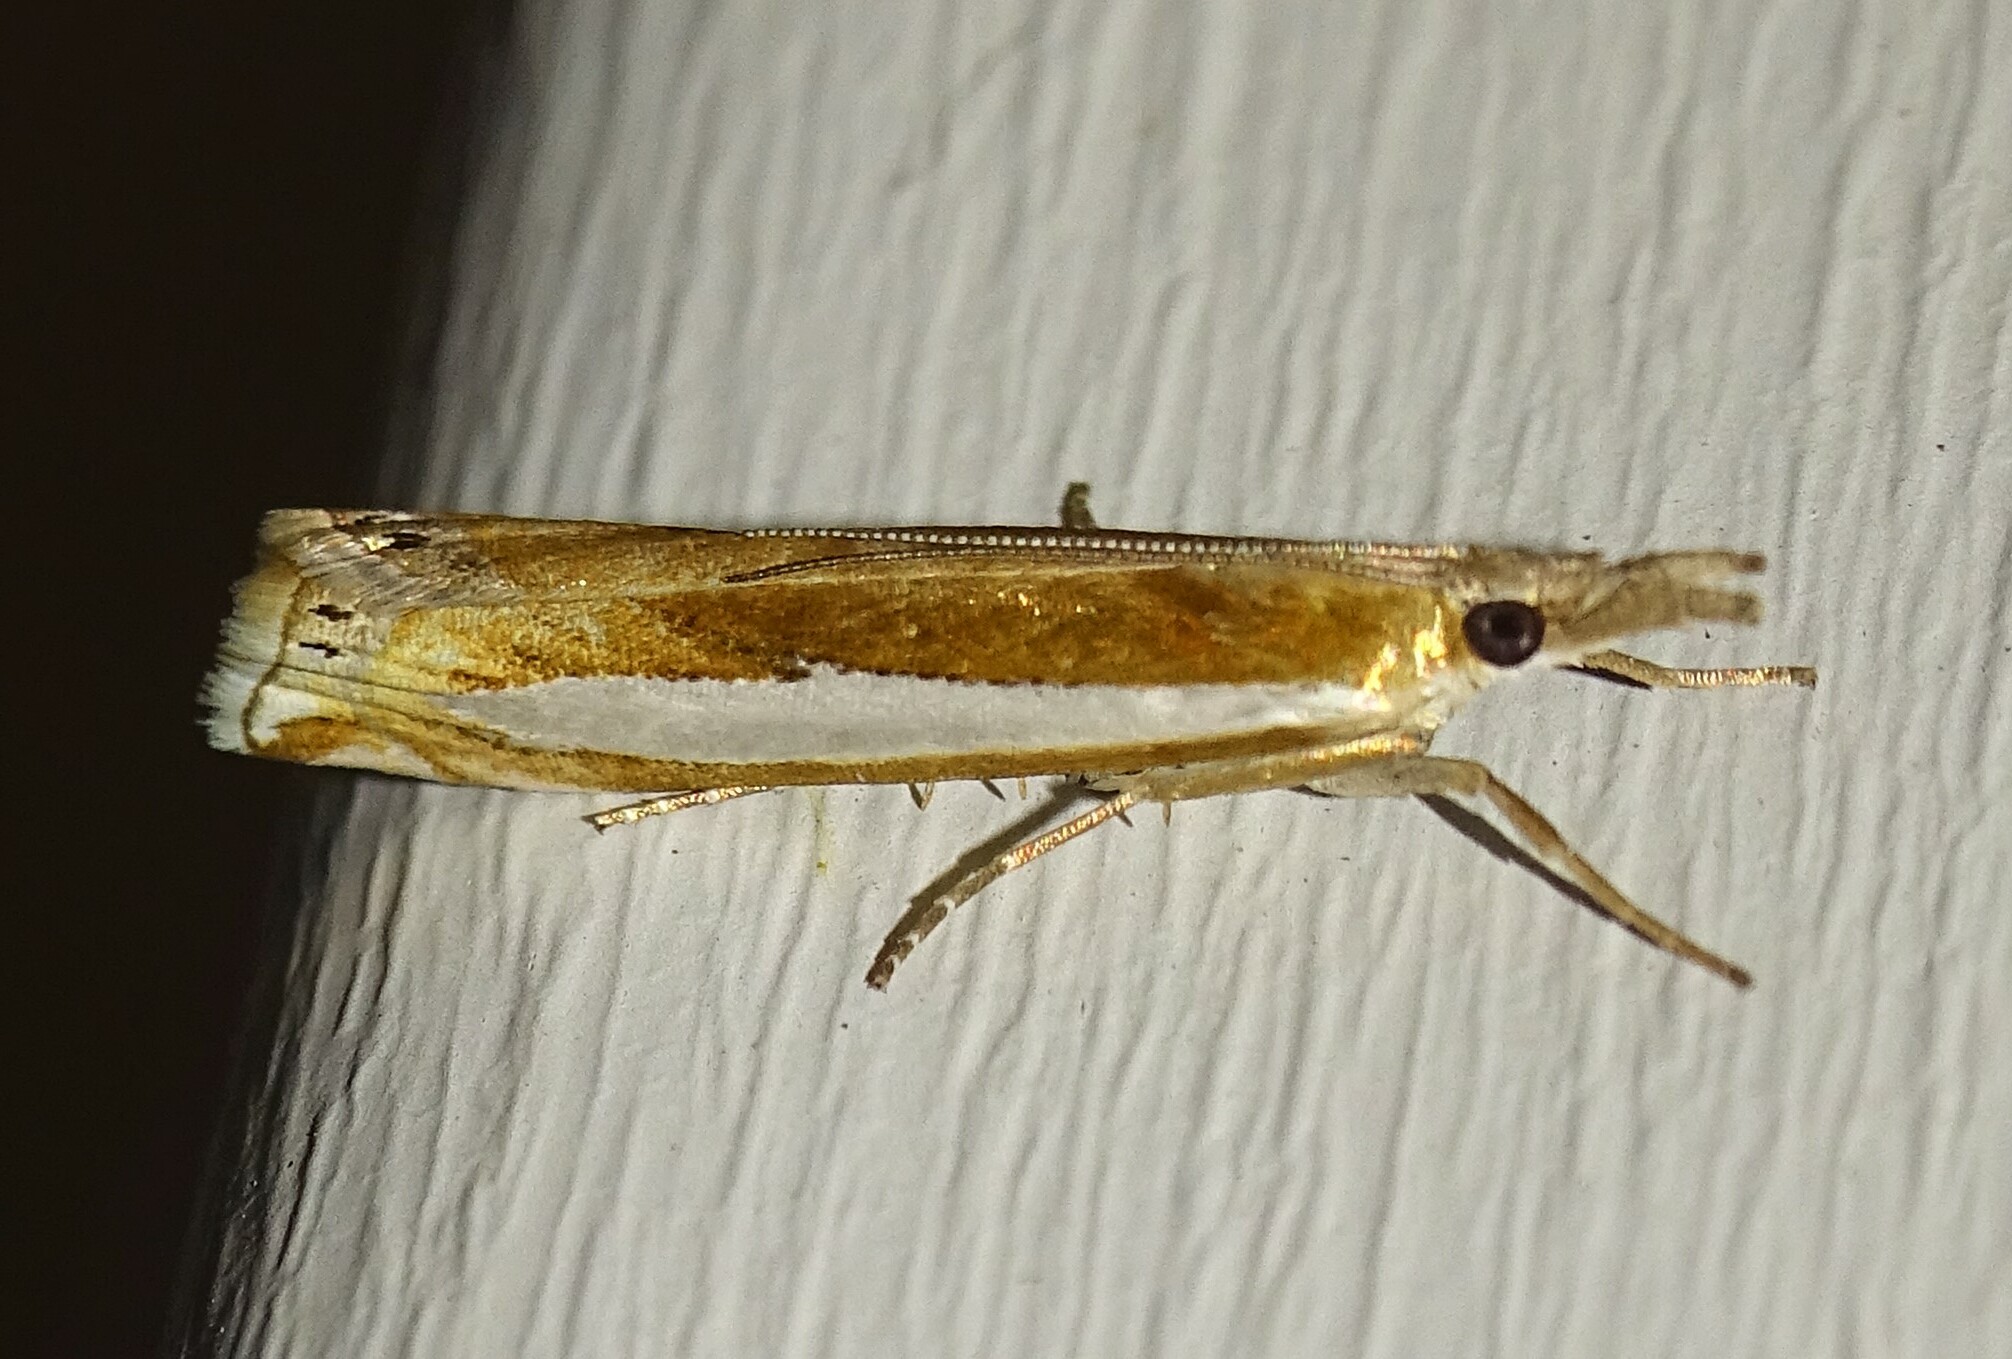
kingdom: Animalia
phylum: Arthropoda
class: Insecta
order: Lepidoptera
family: Crambidae
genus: Crambus
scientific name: Crambus praefectellus
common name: Common grass-veneer
